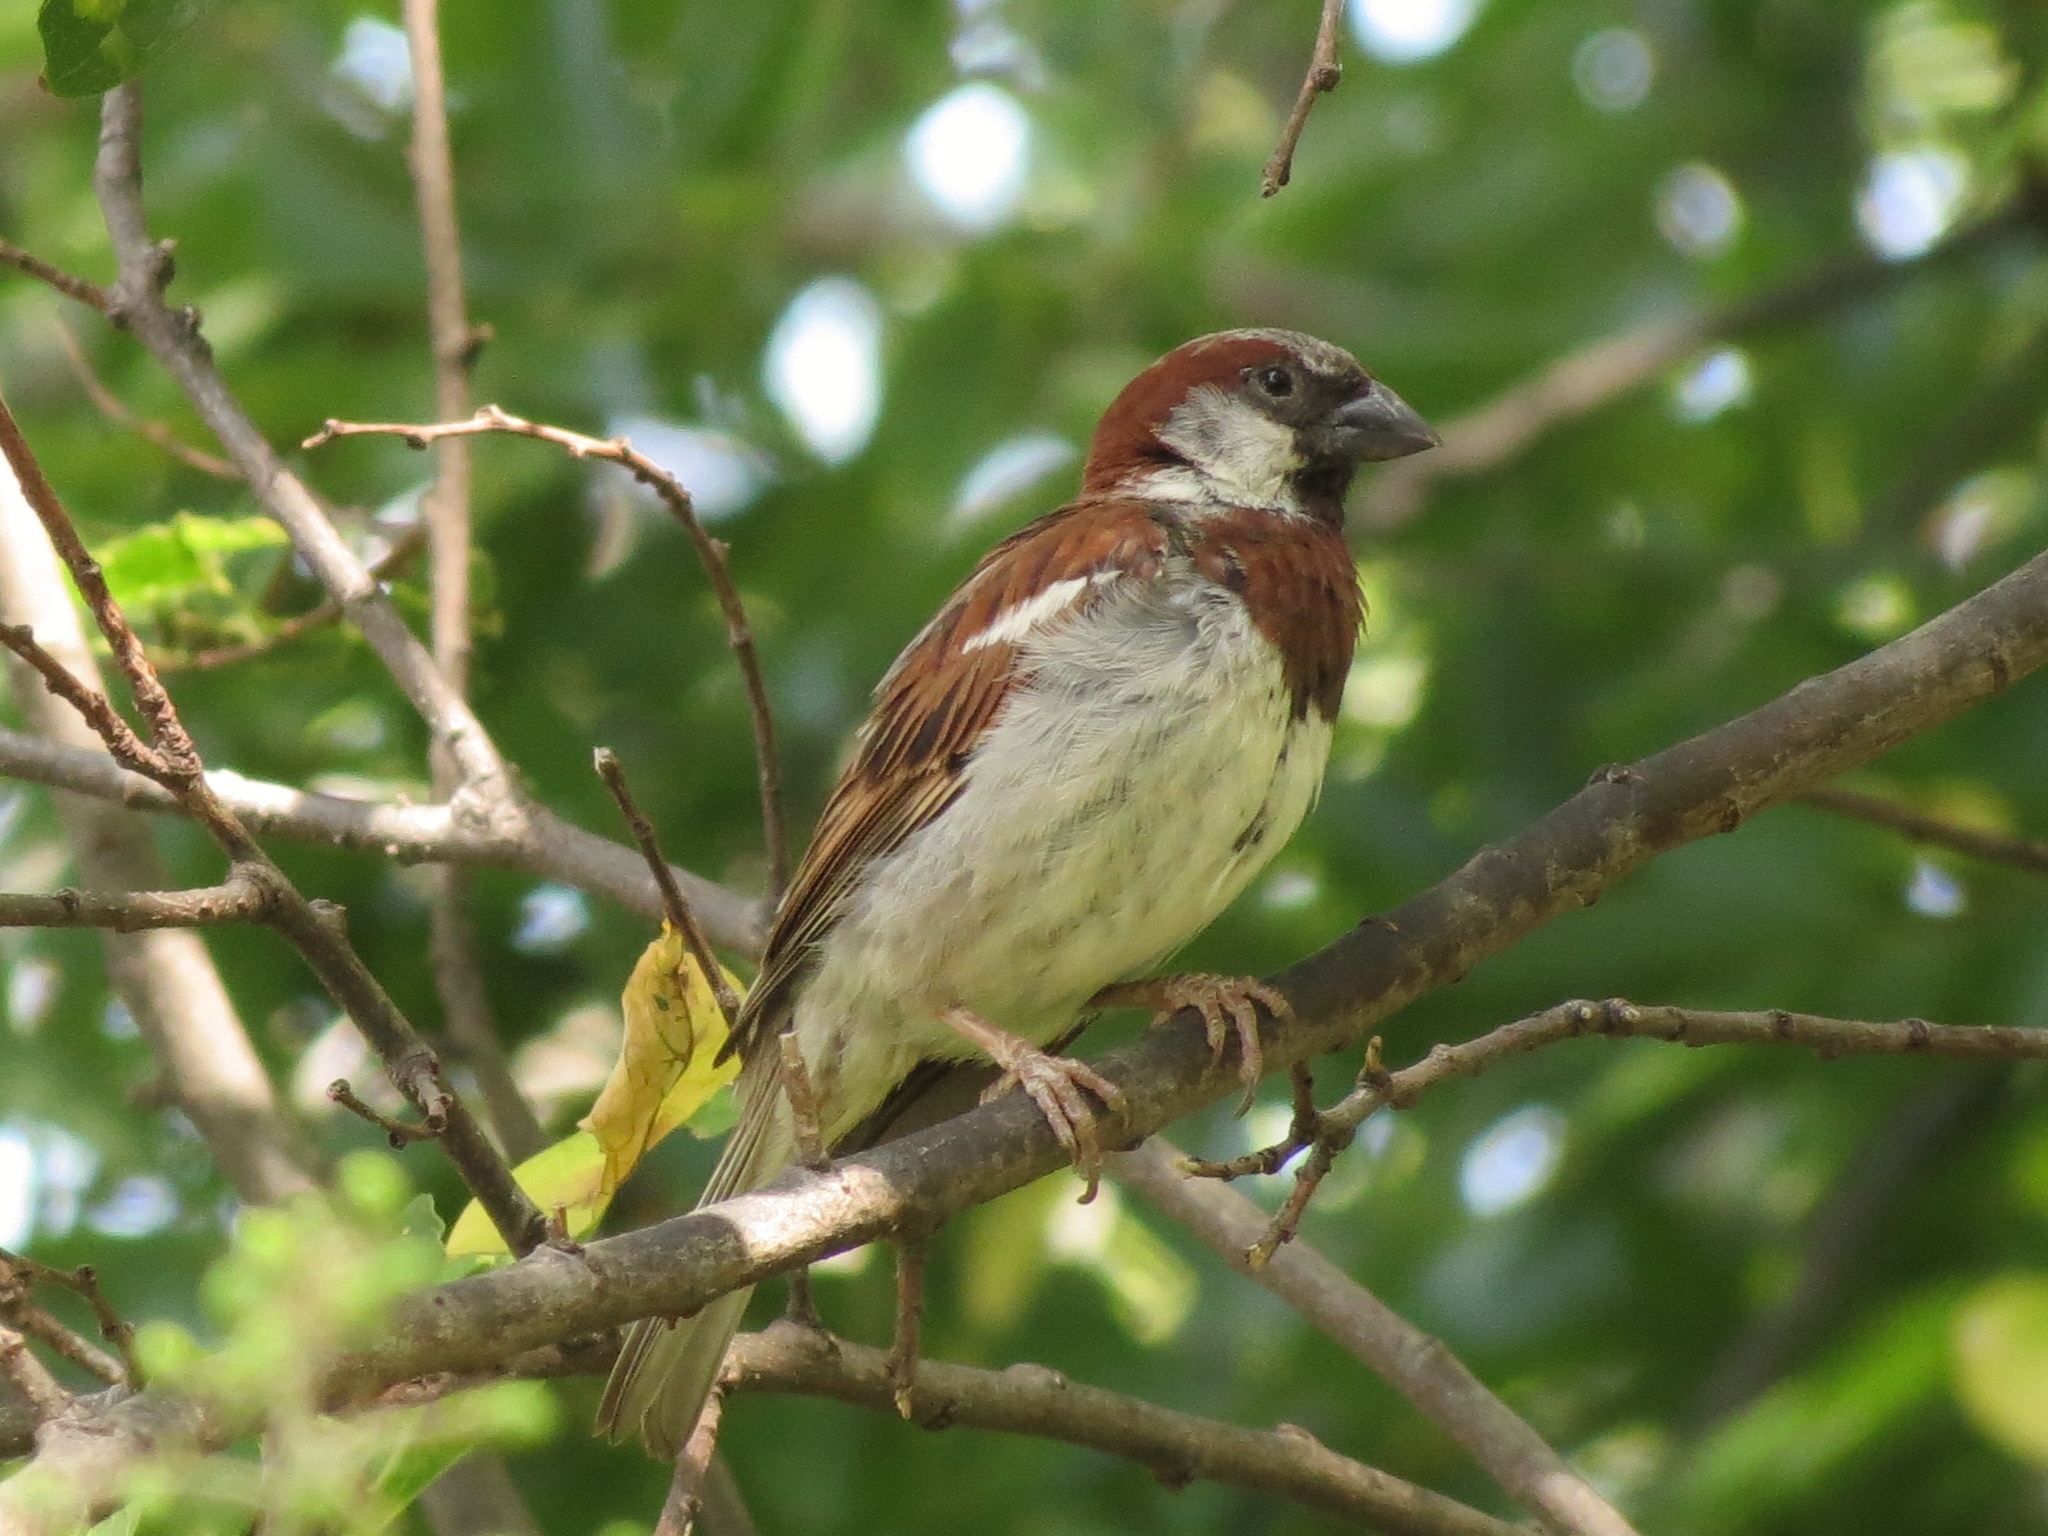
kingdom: Animalia
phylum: Chordata
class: Aves
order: Passeriformes
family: Passeridae
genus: Passer
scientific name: Passer domesticus
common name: House sparrow
